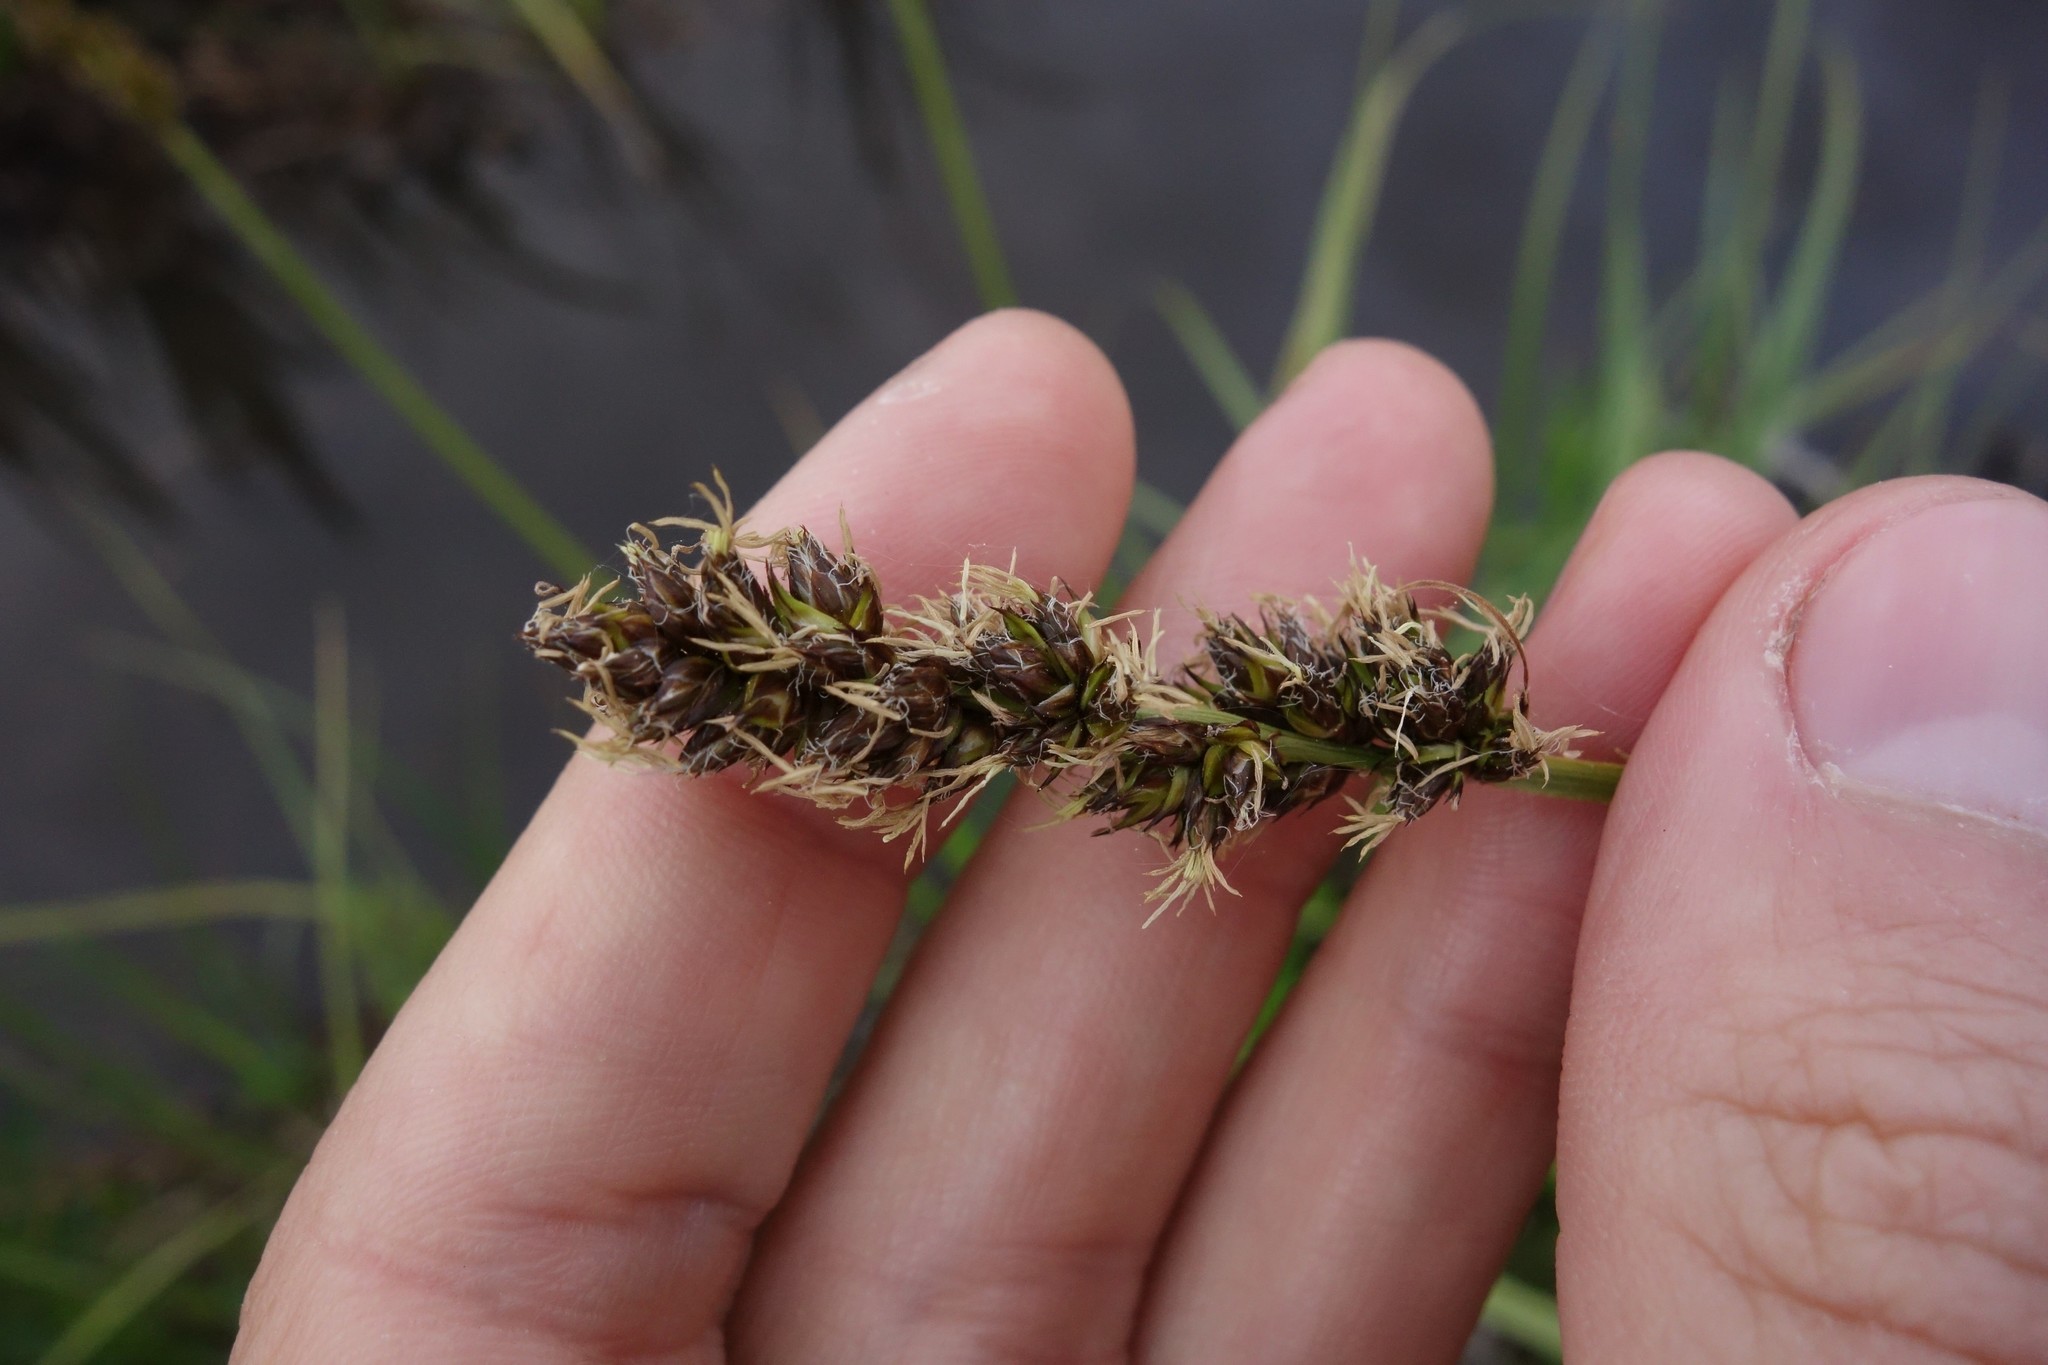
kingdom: Plantae
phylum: Tracheophyta
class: Liliopsida
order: Poales
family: Cyperaceae
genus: Carex
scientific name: Carex vulpina
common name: True fox-sedge
